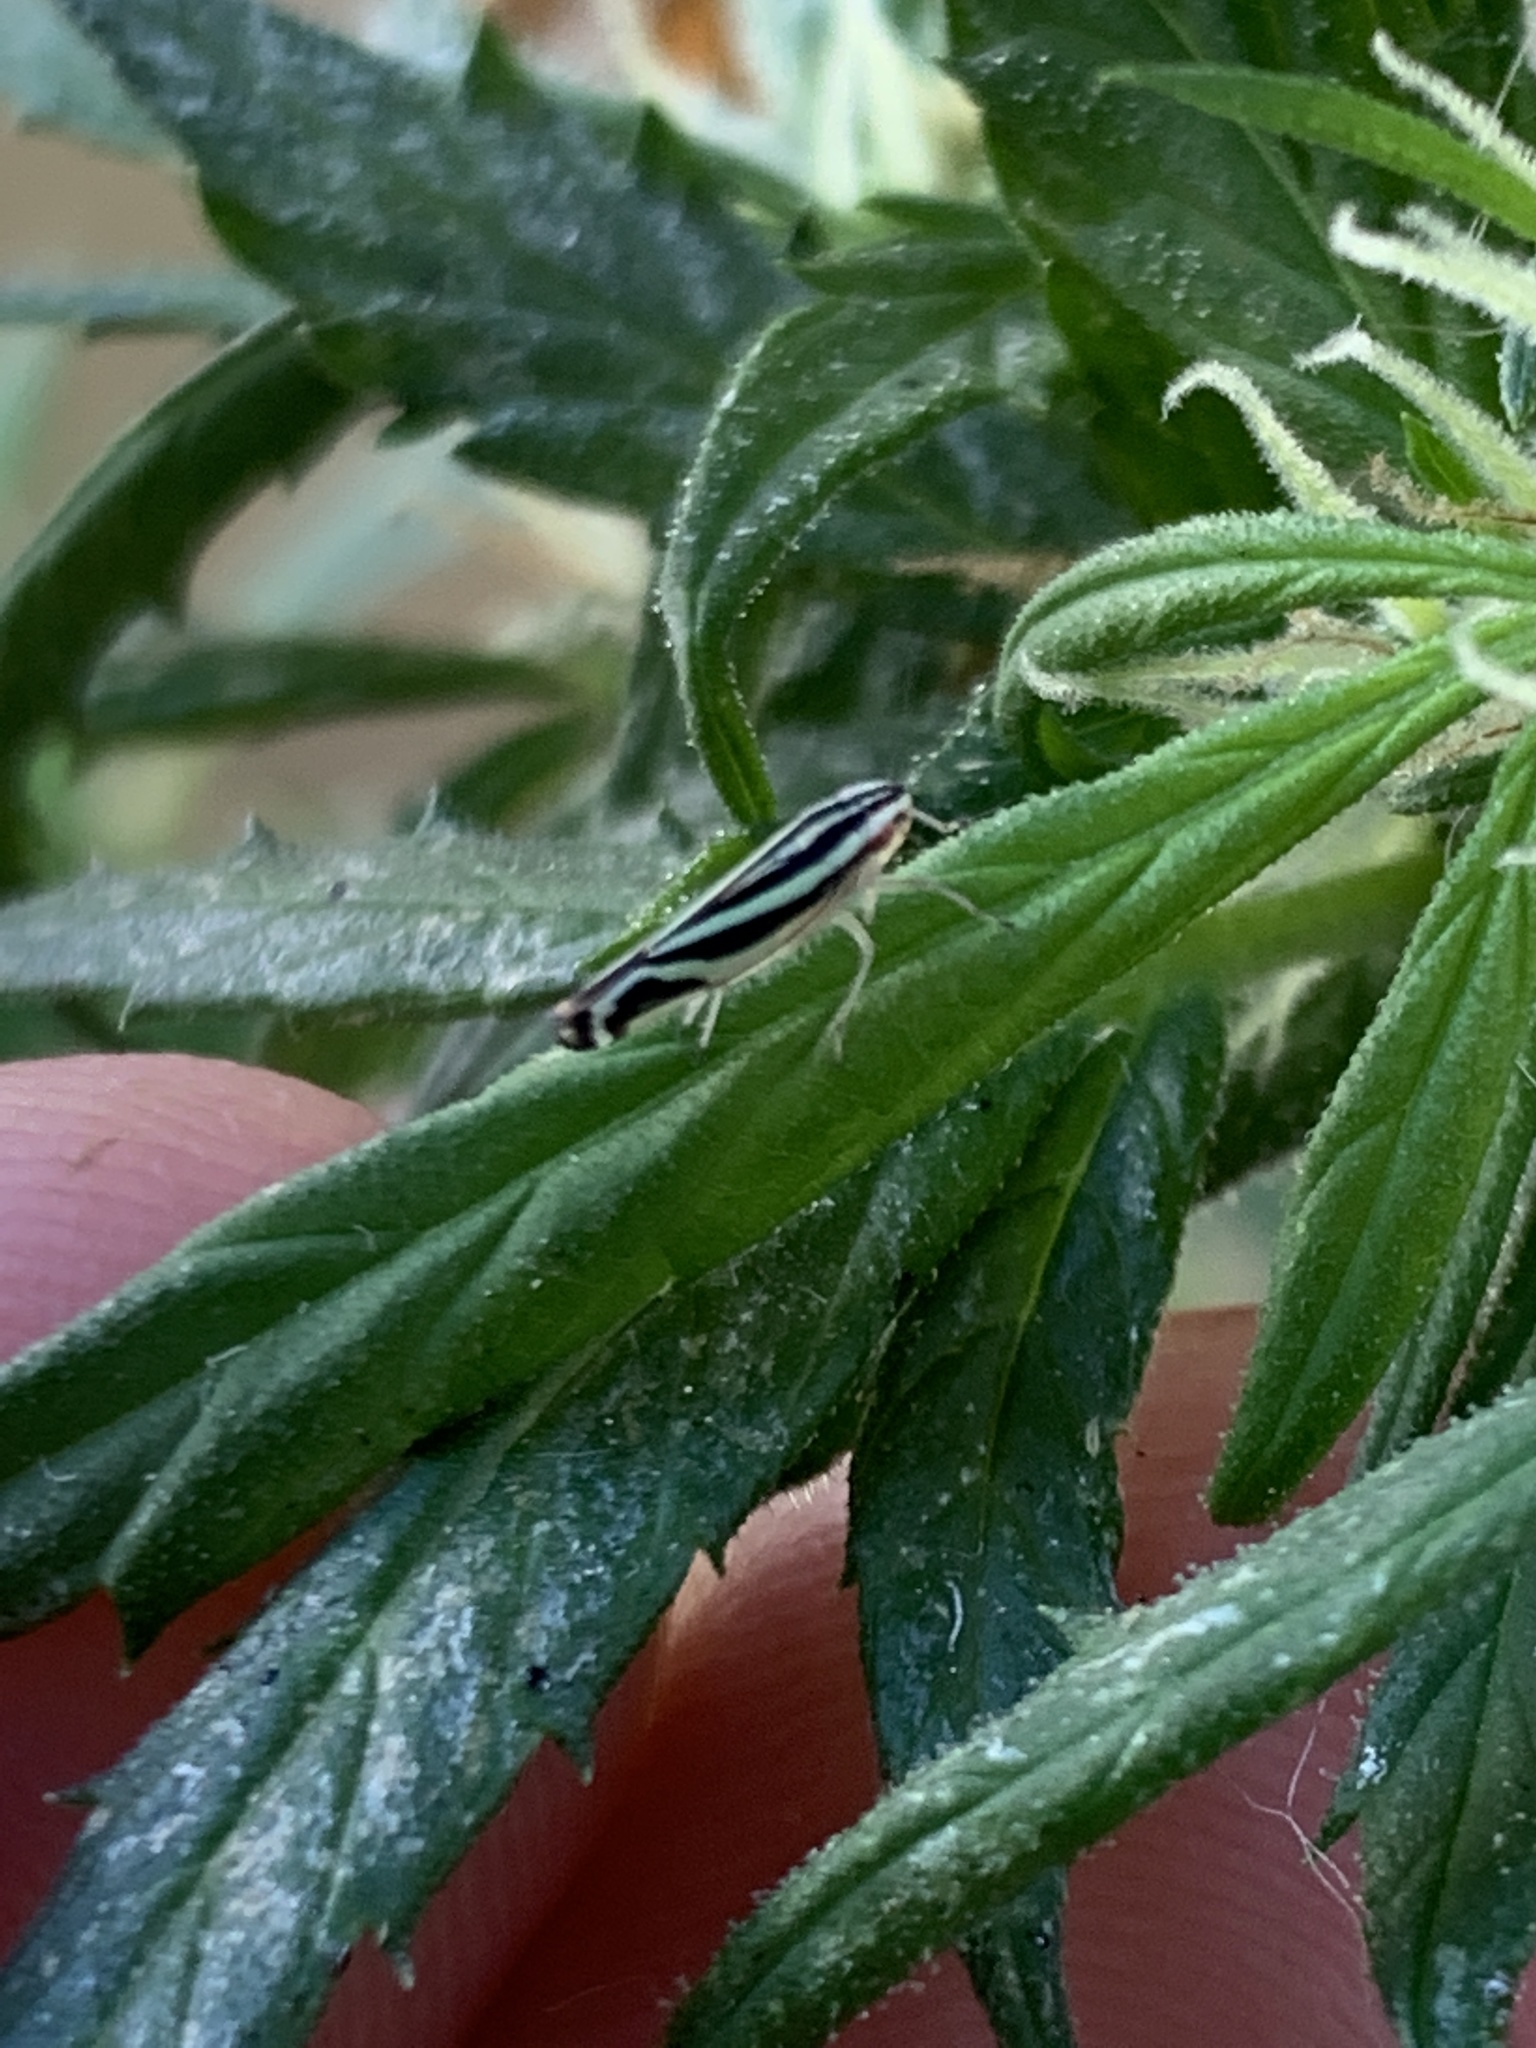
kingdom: Animalia
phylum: Arthropoda
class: Insecta
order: Hemiptera
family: Cicadellidae
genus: Sibovia
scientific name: Sibovia sagata
